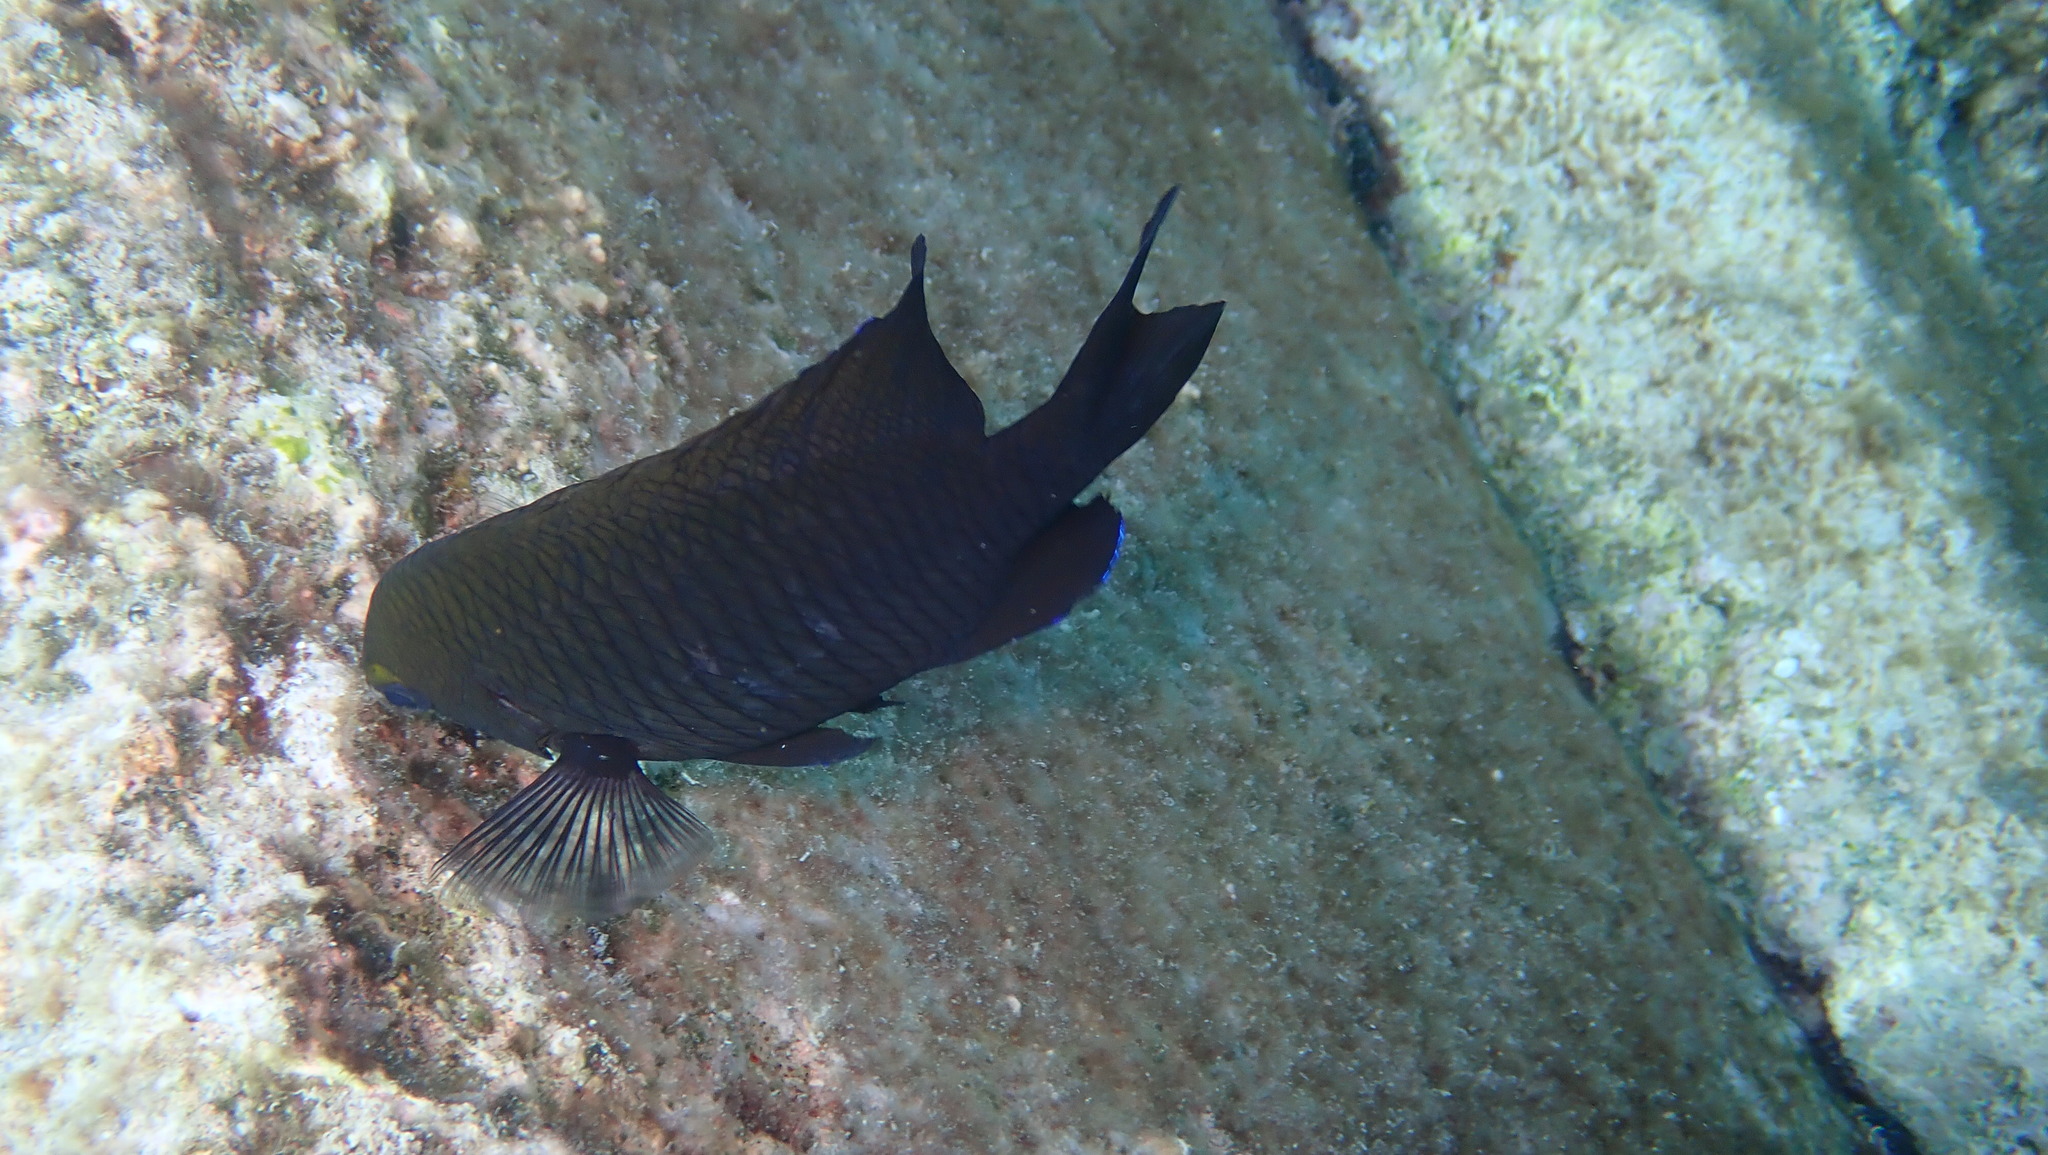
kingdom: Animalia
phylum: Chordata
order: Perciformes
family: Pomacentridae
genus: Stegastes
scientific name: Stegastes diencaeus
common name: Longfin damselfish
